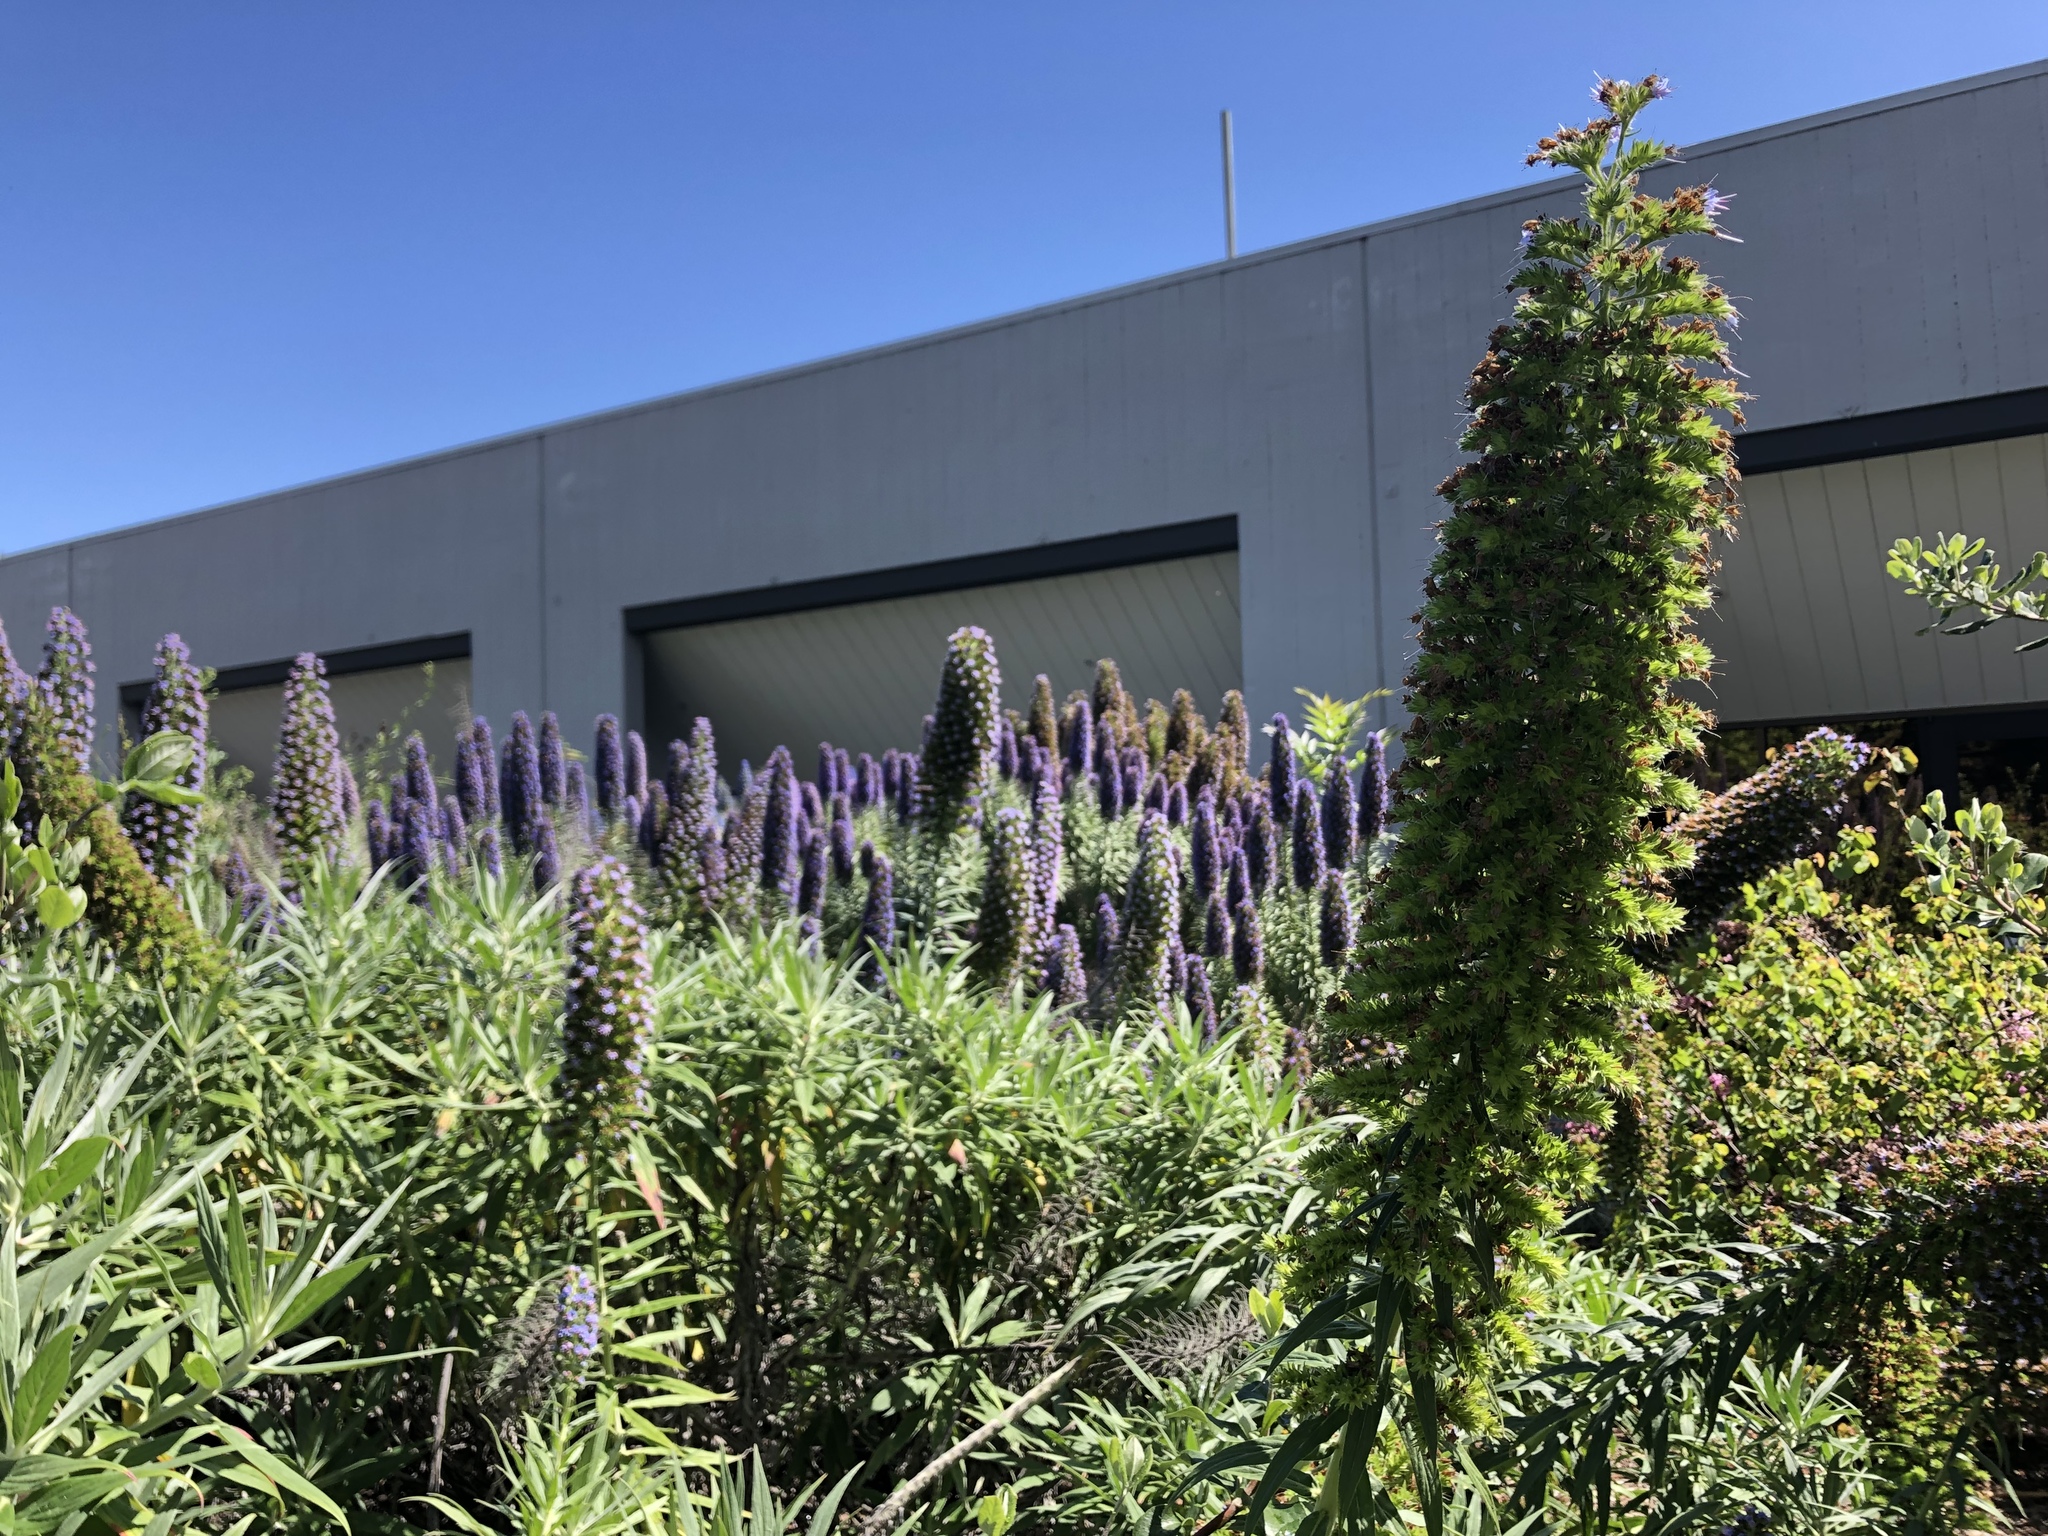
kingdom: Plantae
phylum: Tracheophyta
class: Magnoliopsida
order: Boraginales
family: Boraginaceae
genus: Echium
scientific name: Echium candicans
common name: Pride of madeira
